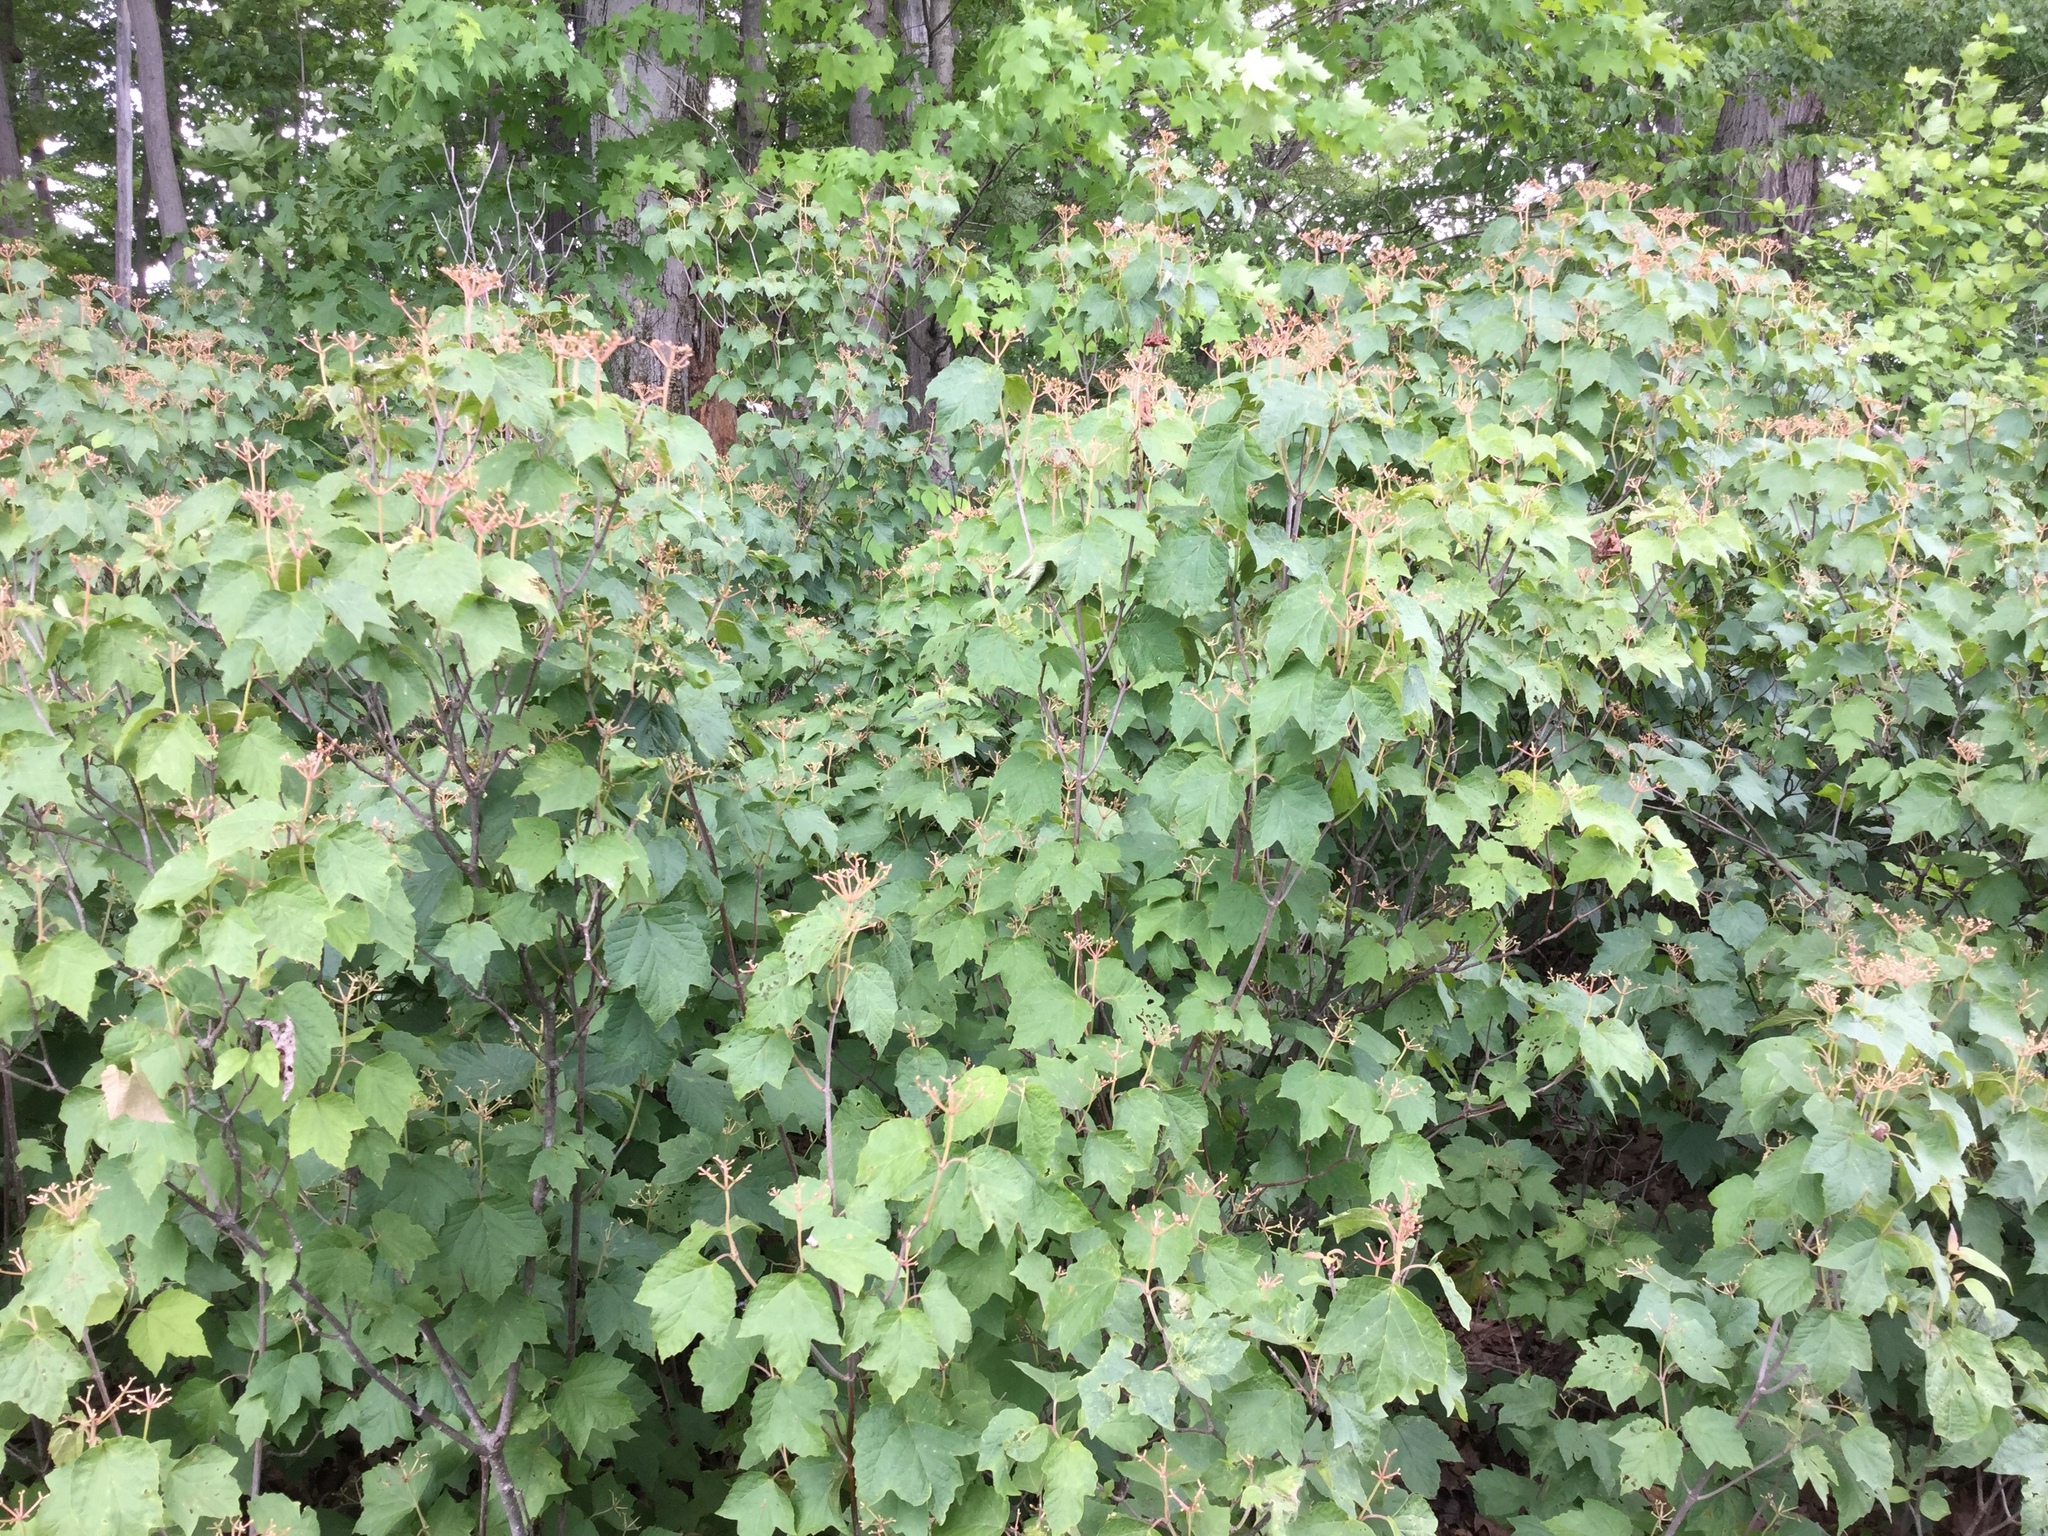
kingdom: Plantae
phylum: Tracheophyta
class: Magnoliopsida
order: Dipsacales
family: Viburnaceae
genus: Viburnum
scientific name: Viburnum acerifolium
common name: Dockmackie
